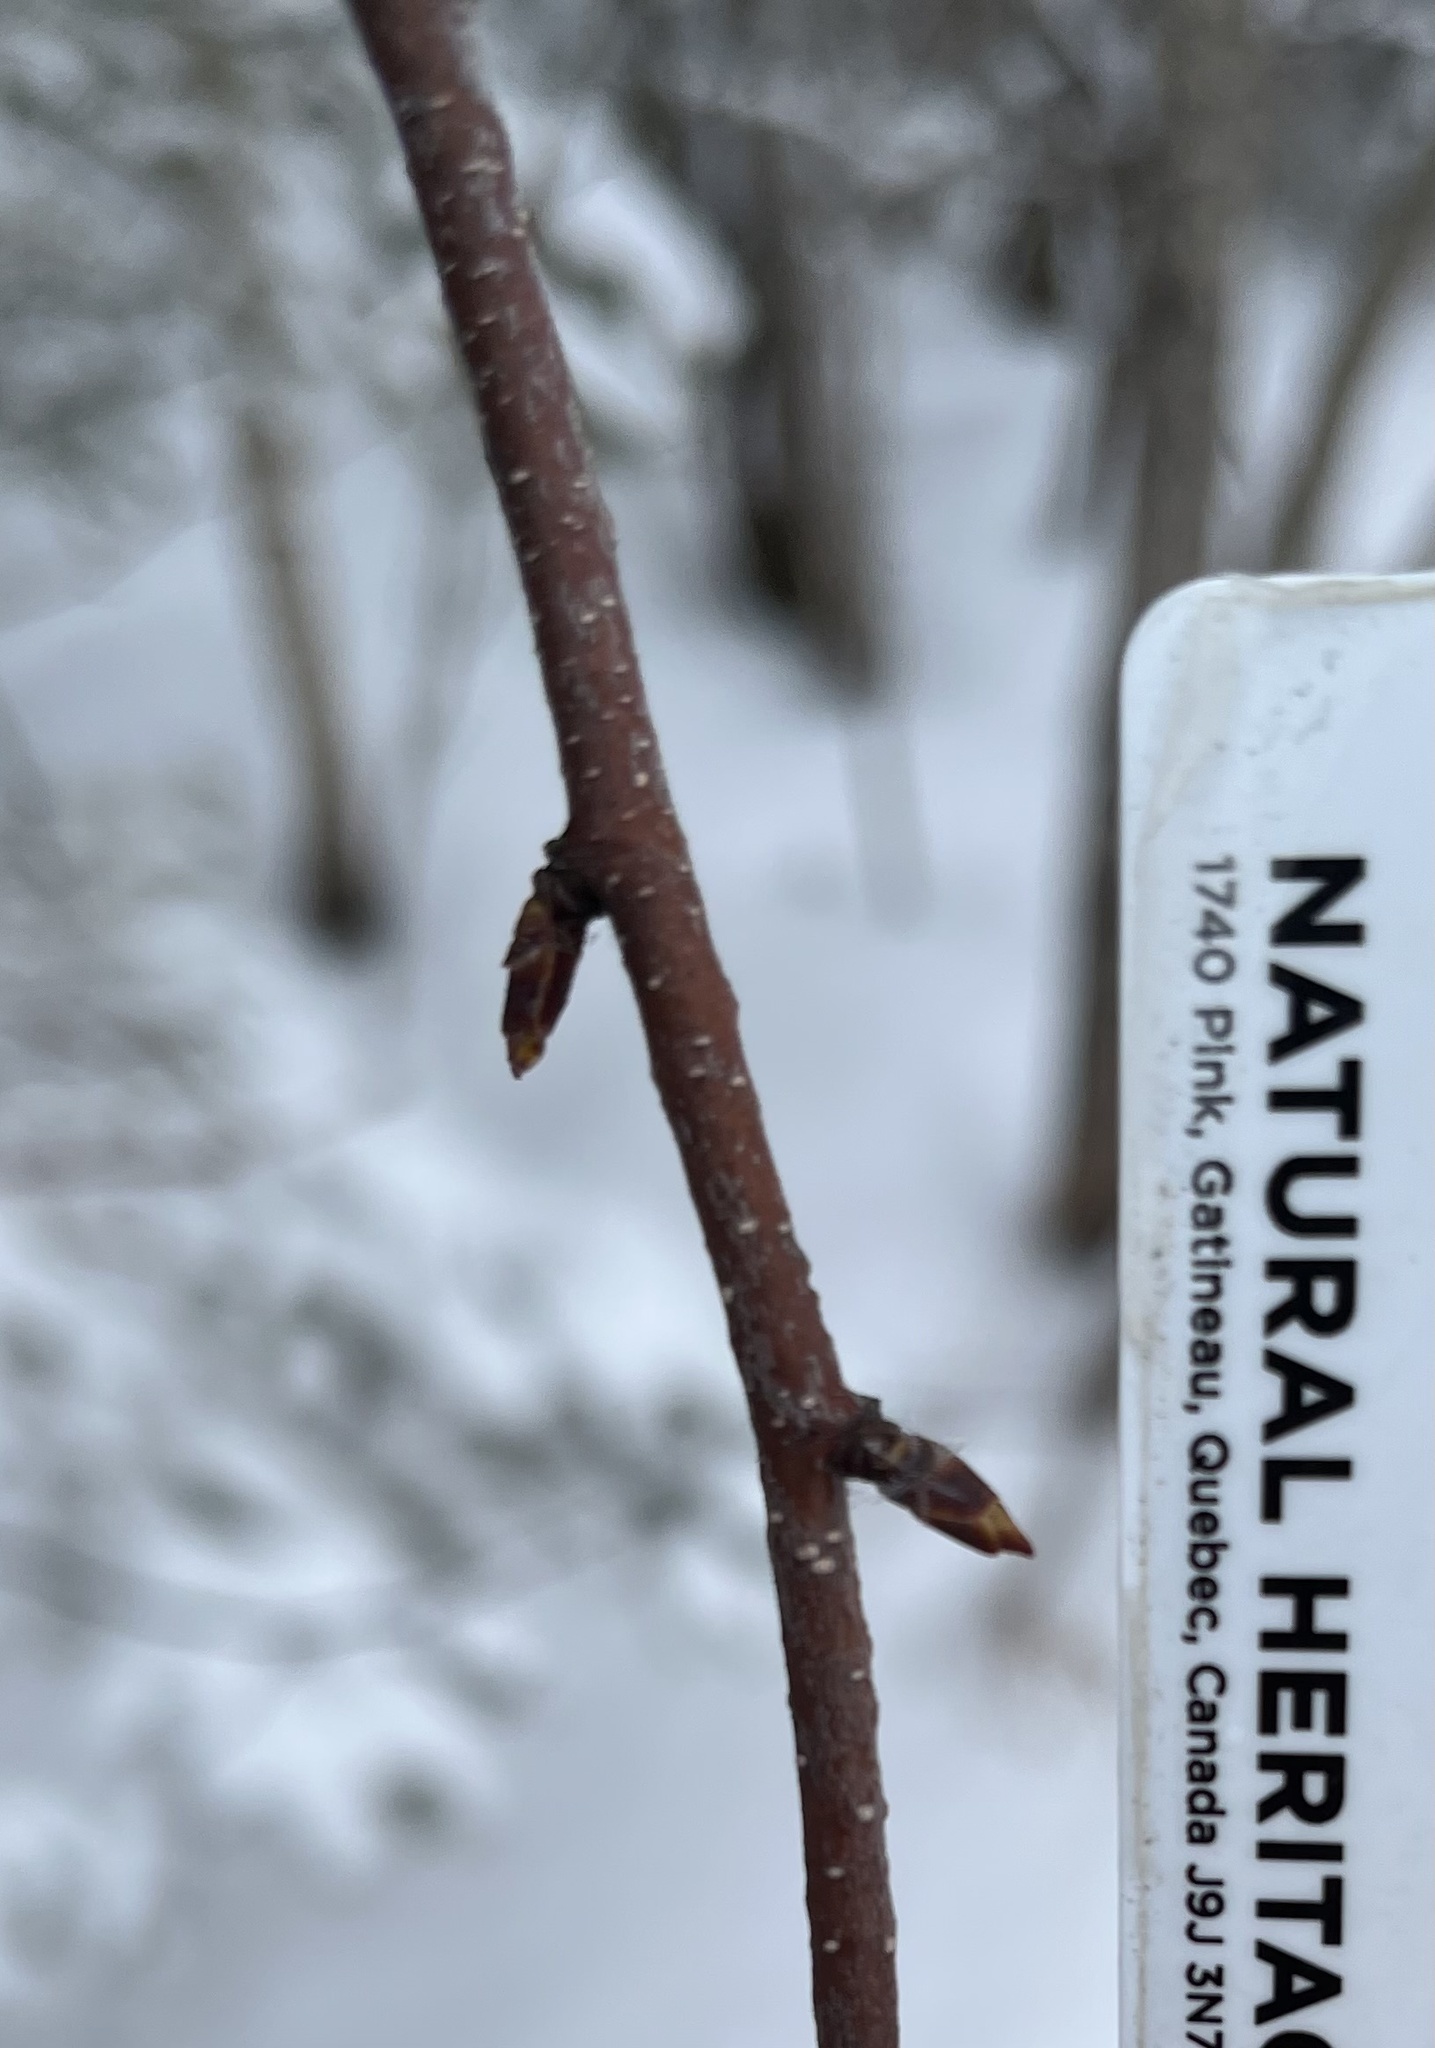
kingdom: Plantae
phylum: Tracheophyta
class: Magnoliopsida
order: Fagales
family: Betulaceae
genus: Betula
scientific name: Betula papyrifera
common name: Paper birch
